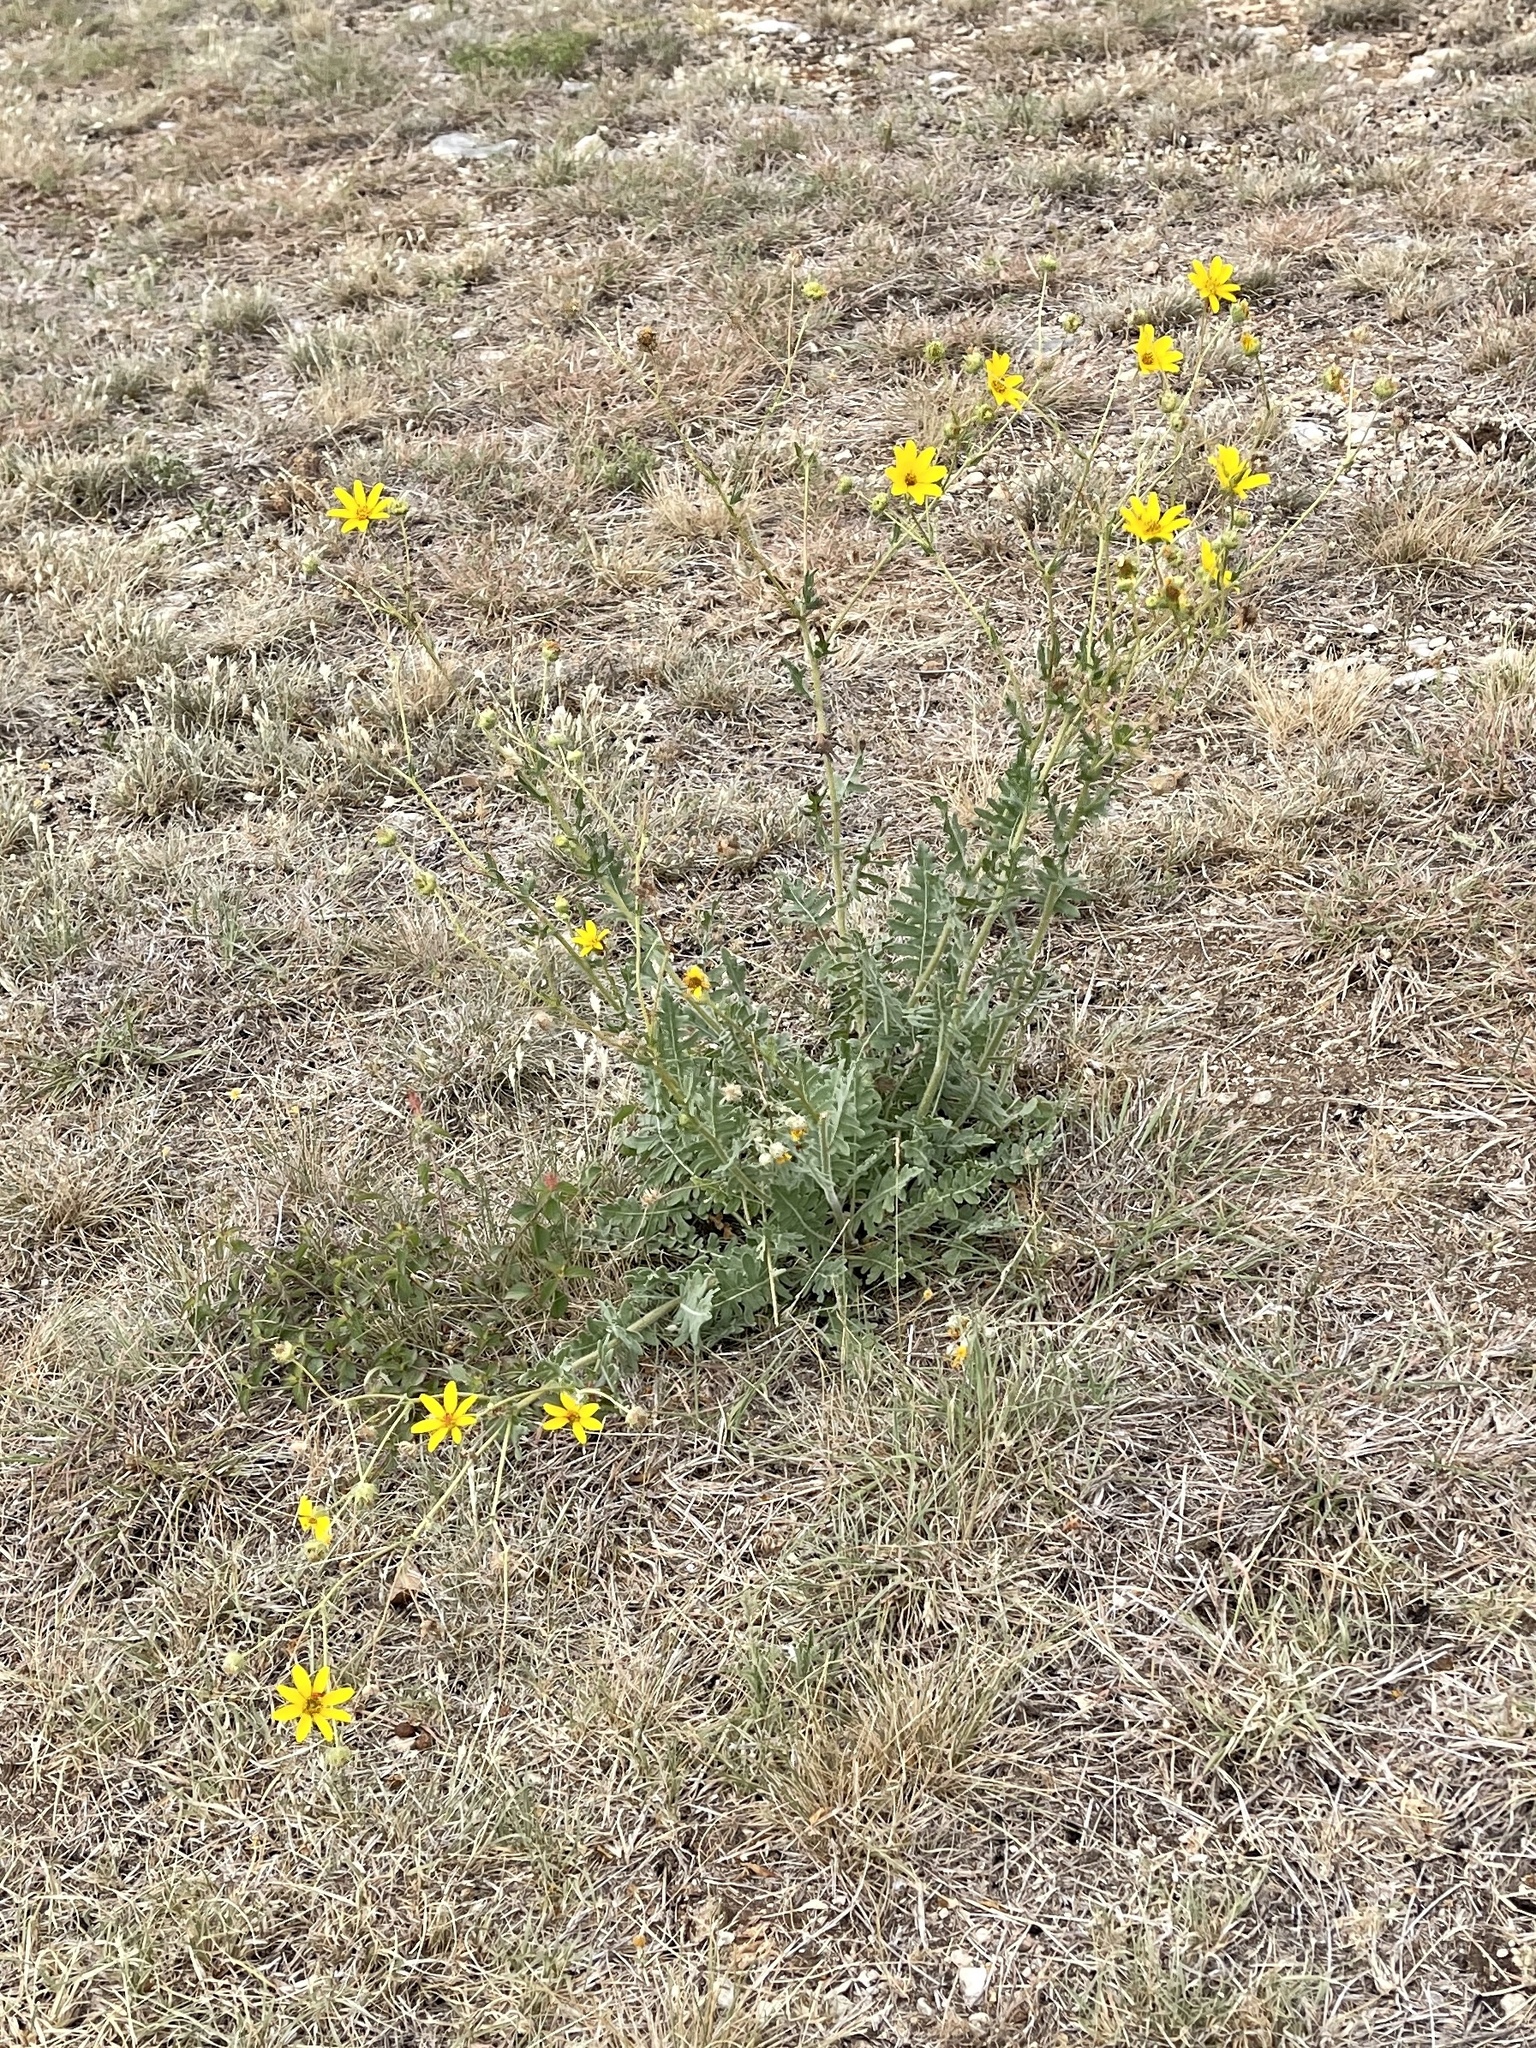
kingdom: Plantae
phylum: Tracheophyta
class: Magnoliopsida
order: Asterales
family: Asteraceae
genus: Engelmannia
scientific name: Engelmannia peristenia
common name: Engelmann's daisy
